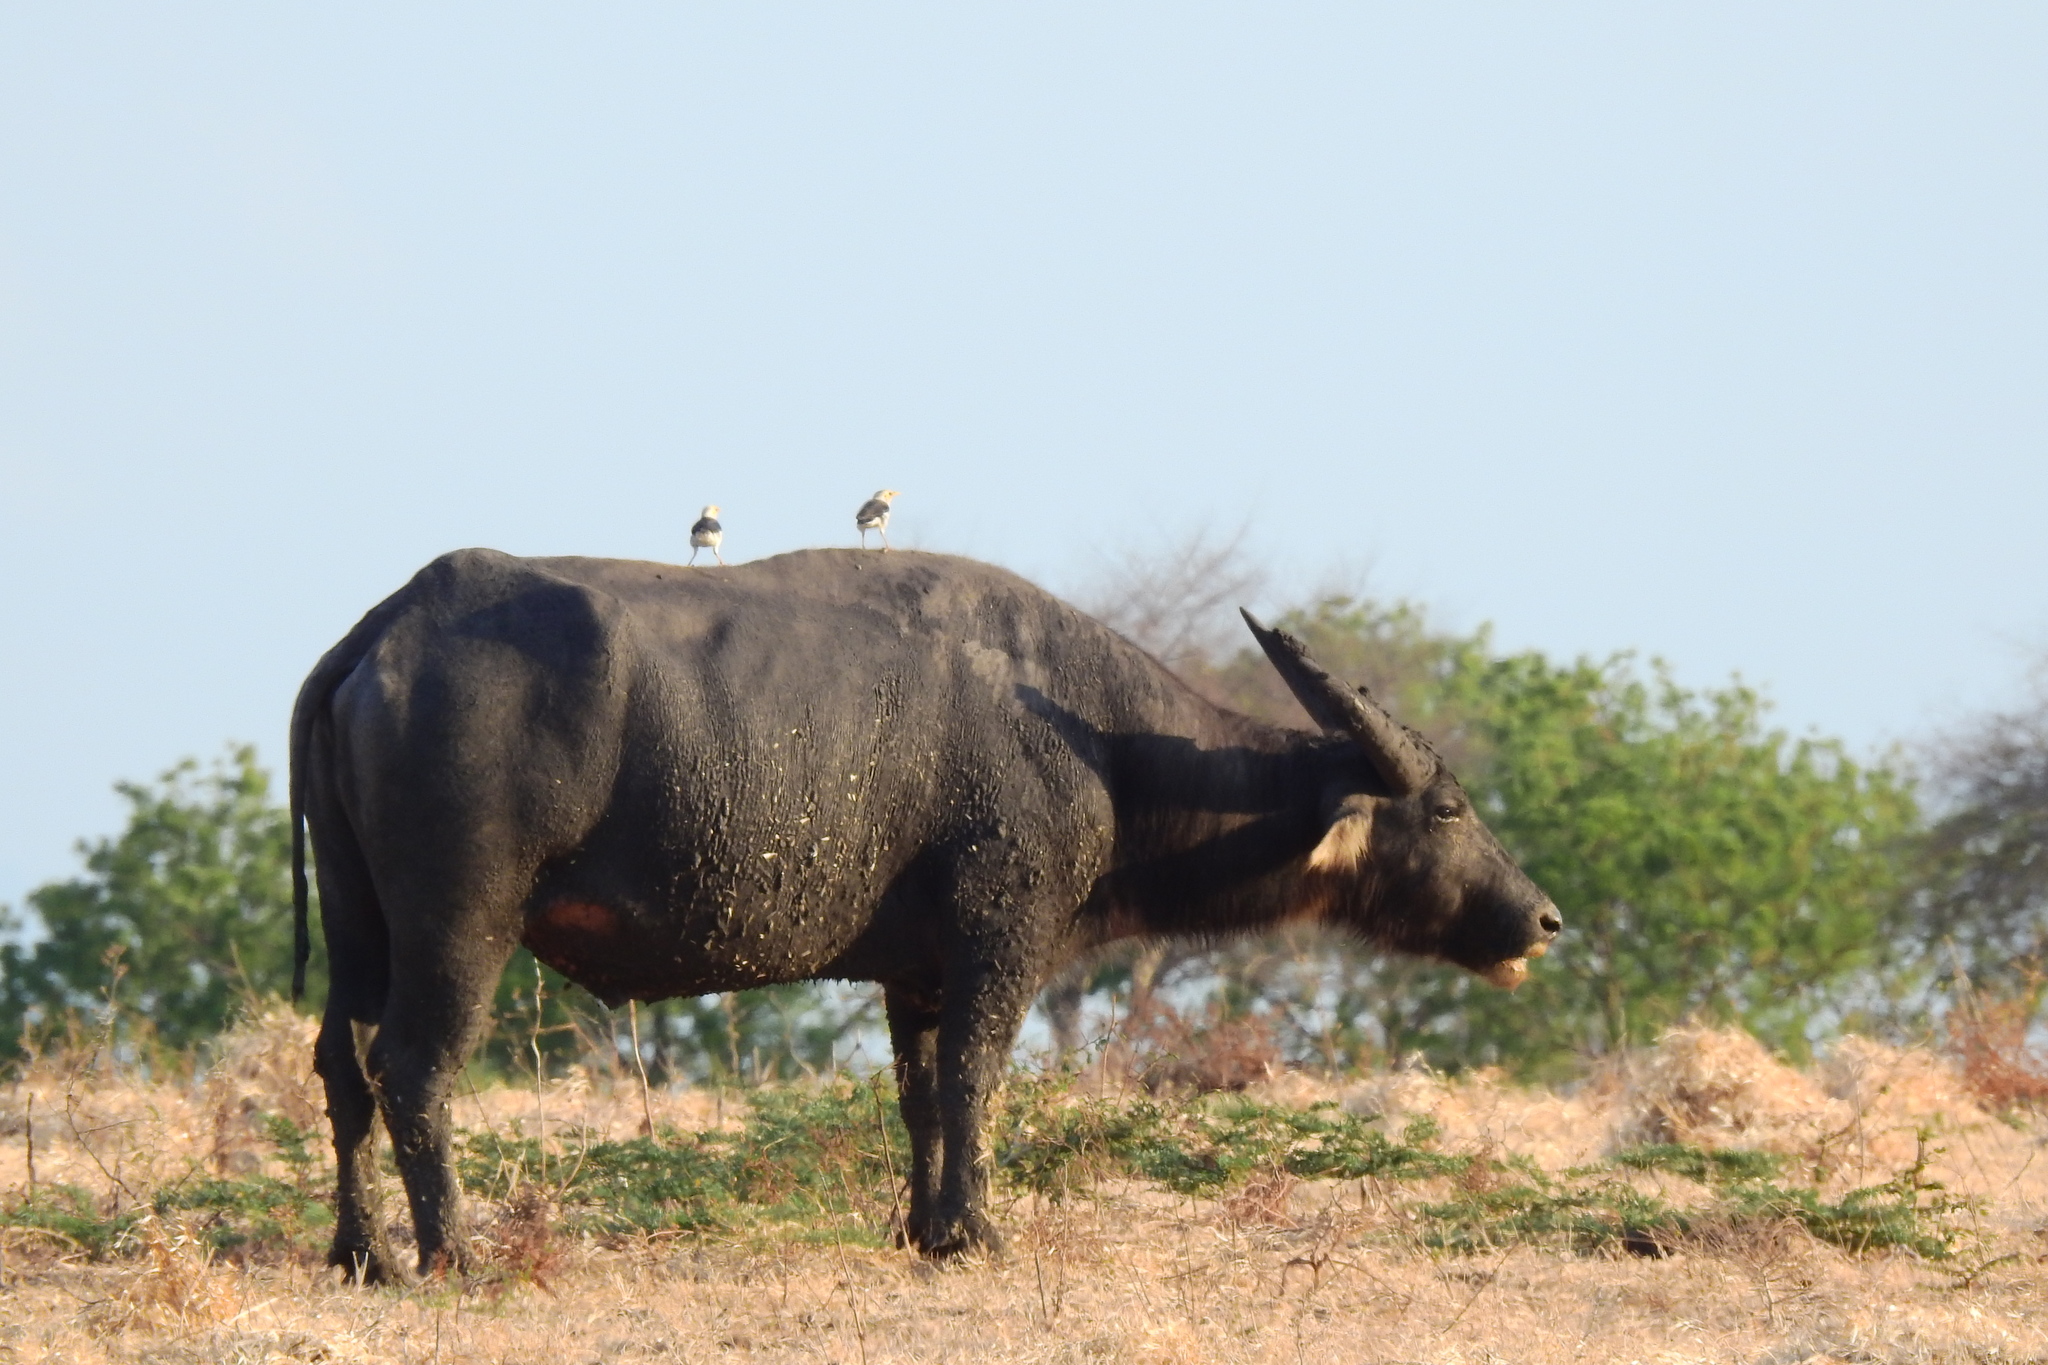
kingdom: Animalia
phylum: Chordata
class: Aves
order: Passeriformes
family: Sturnidae
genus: Acridotheres
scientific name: Acridotheres melanopterus
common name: Black-winged starling
